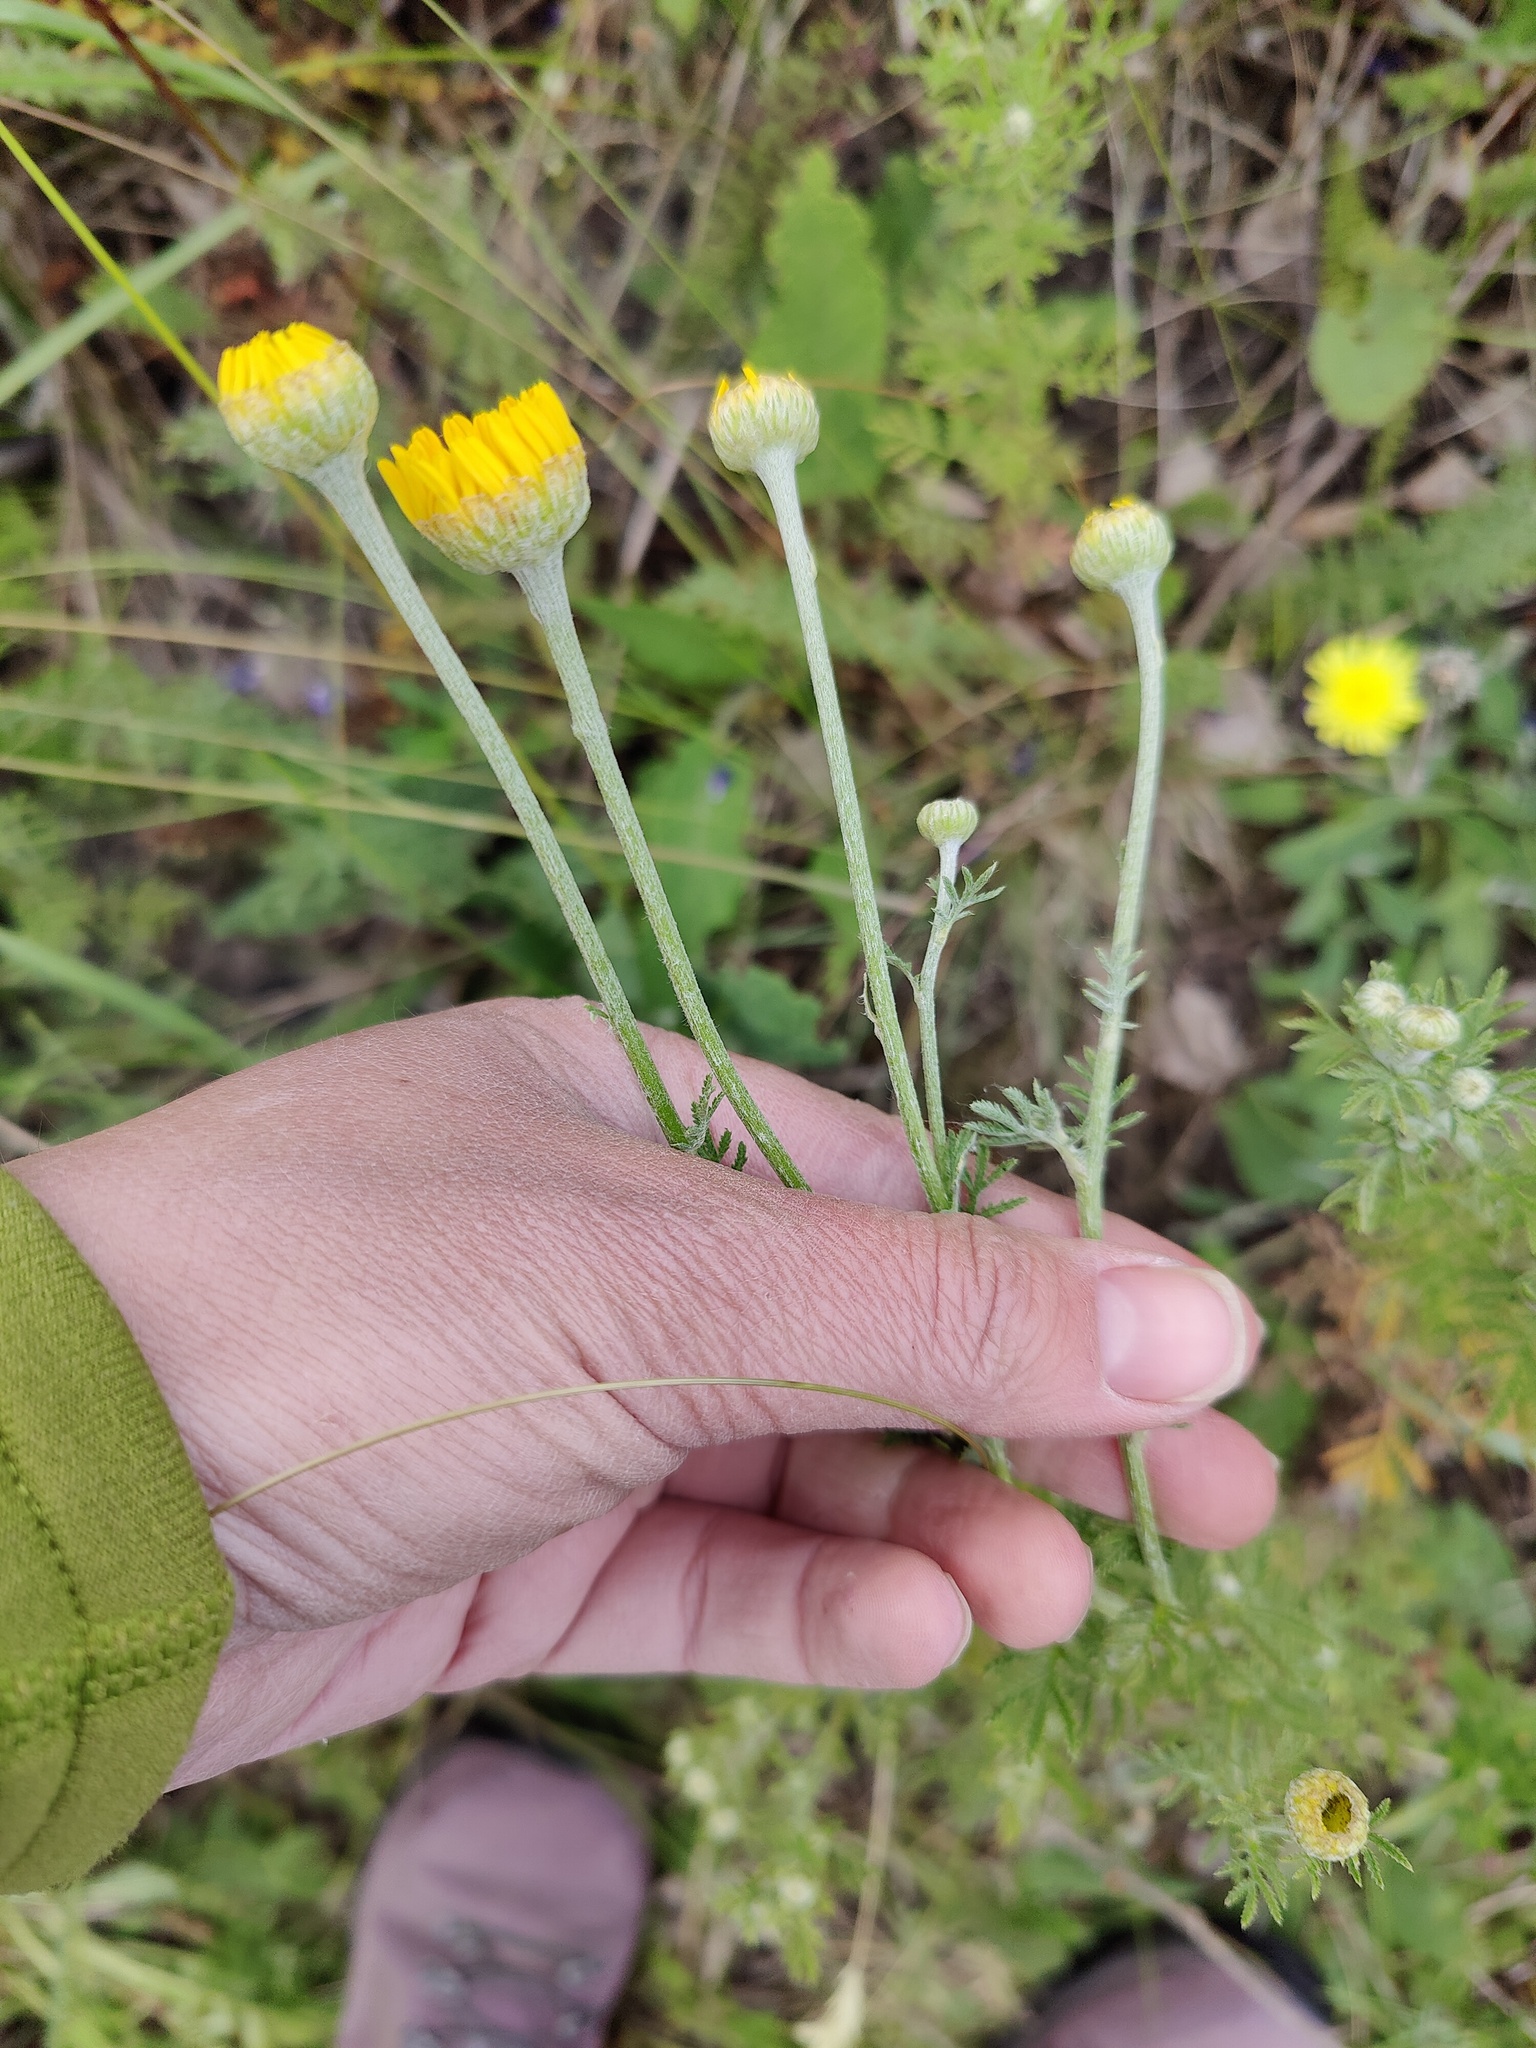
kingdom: Plantae
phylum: Tracheophyta
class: Magnoliopsida
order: Asterales
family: Asteraceae
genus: Cota
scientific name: Cota tinctoria
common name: Golden chamomile
